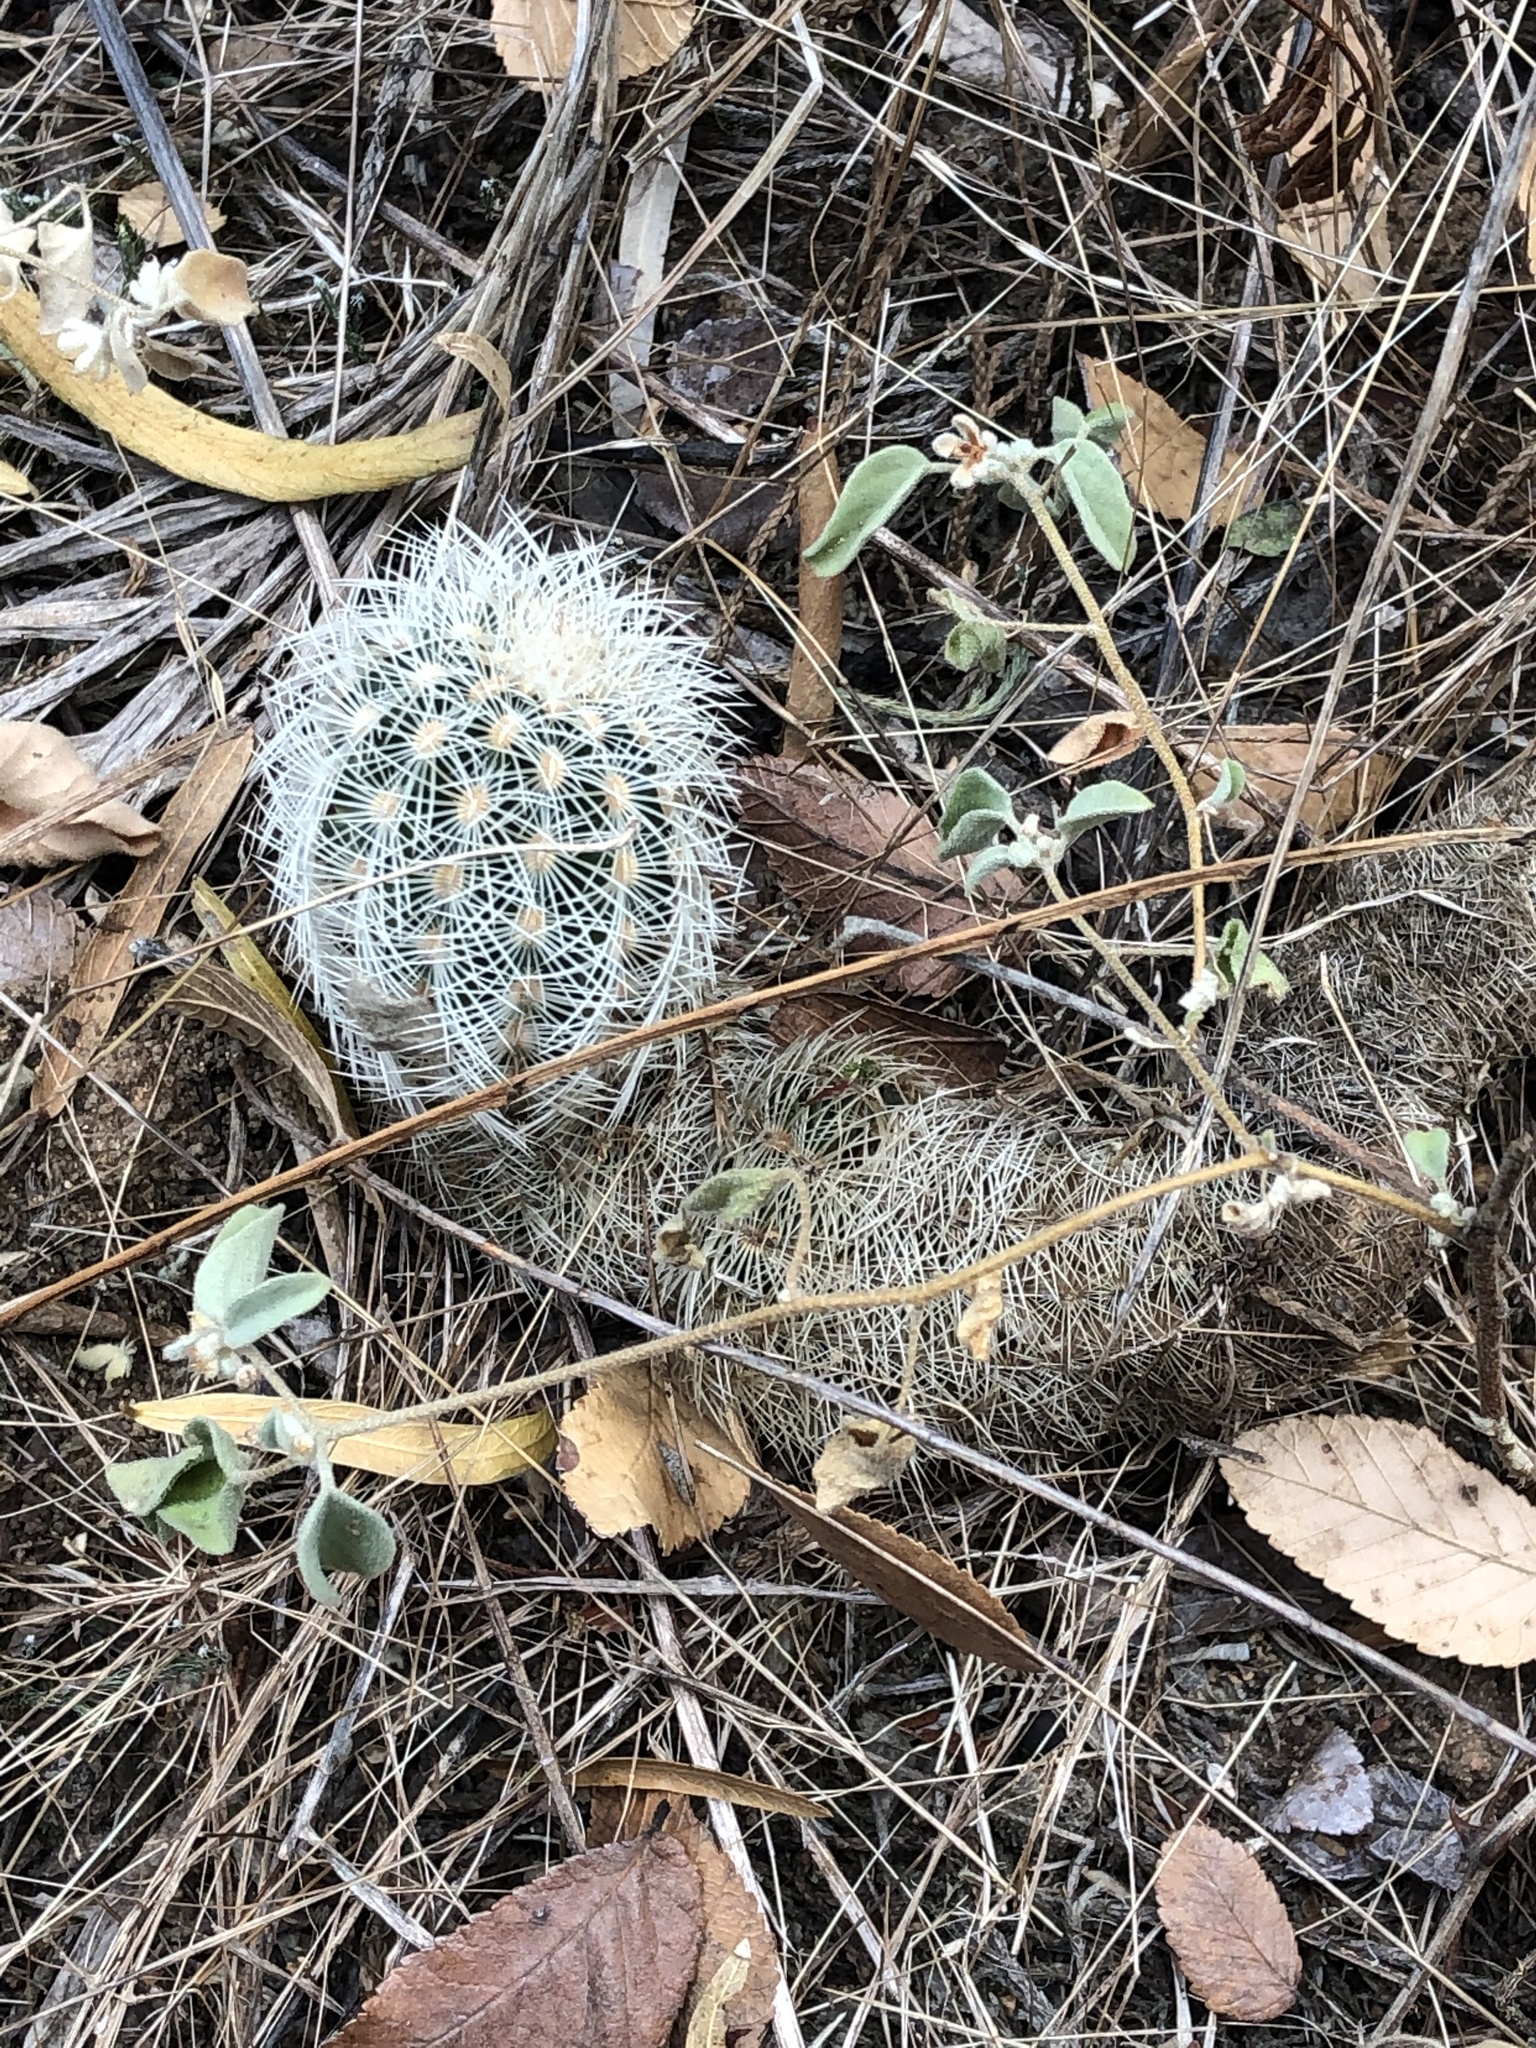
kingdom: Plantae
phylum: Tracheophyta
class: Magnoliopsida
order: Caryophyllales
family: Cactaceae
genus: Echinocereus
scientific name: Echinocereus reichenbachii
